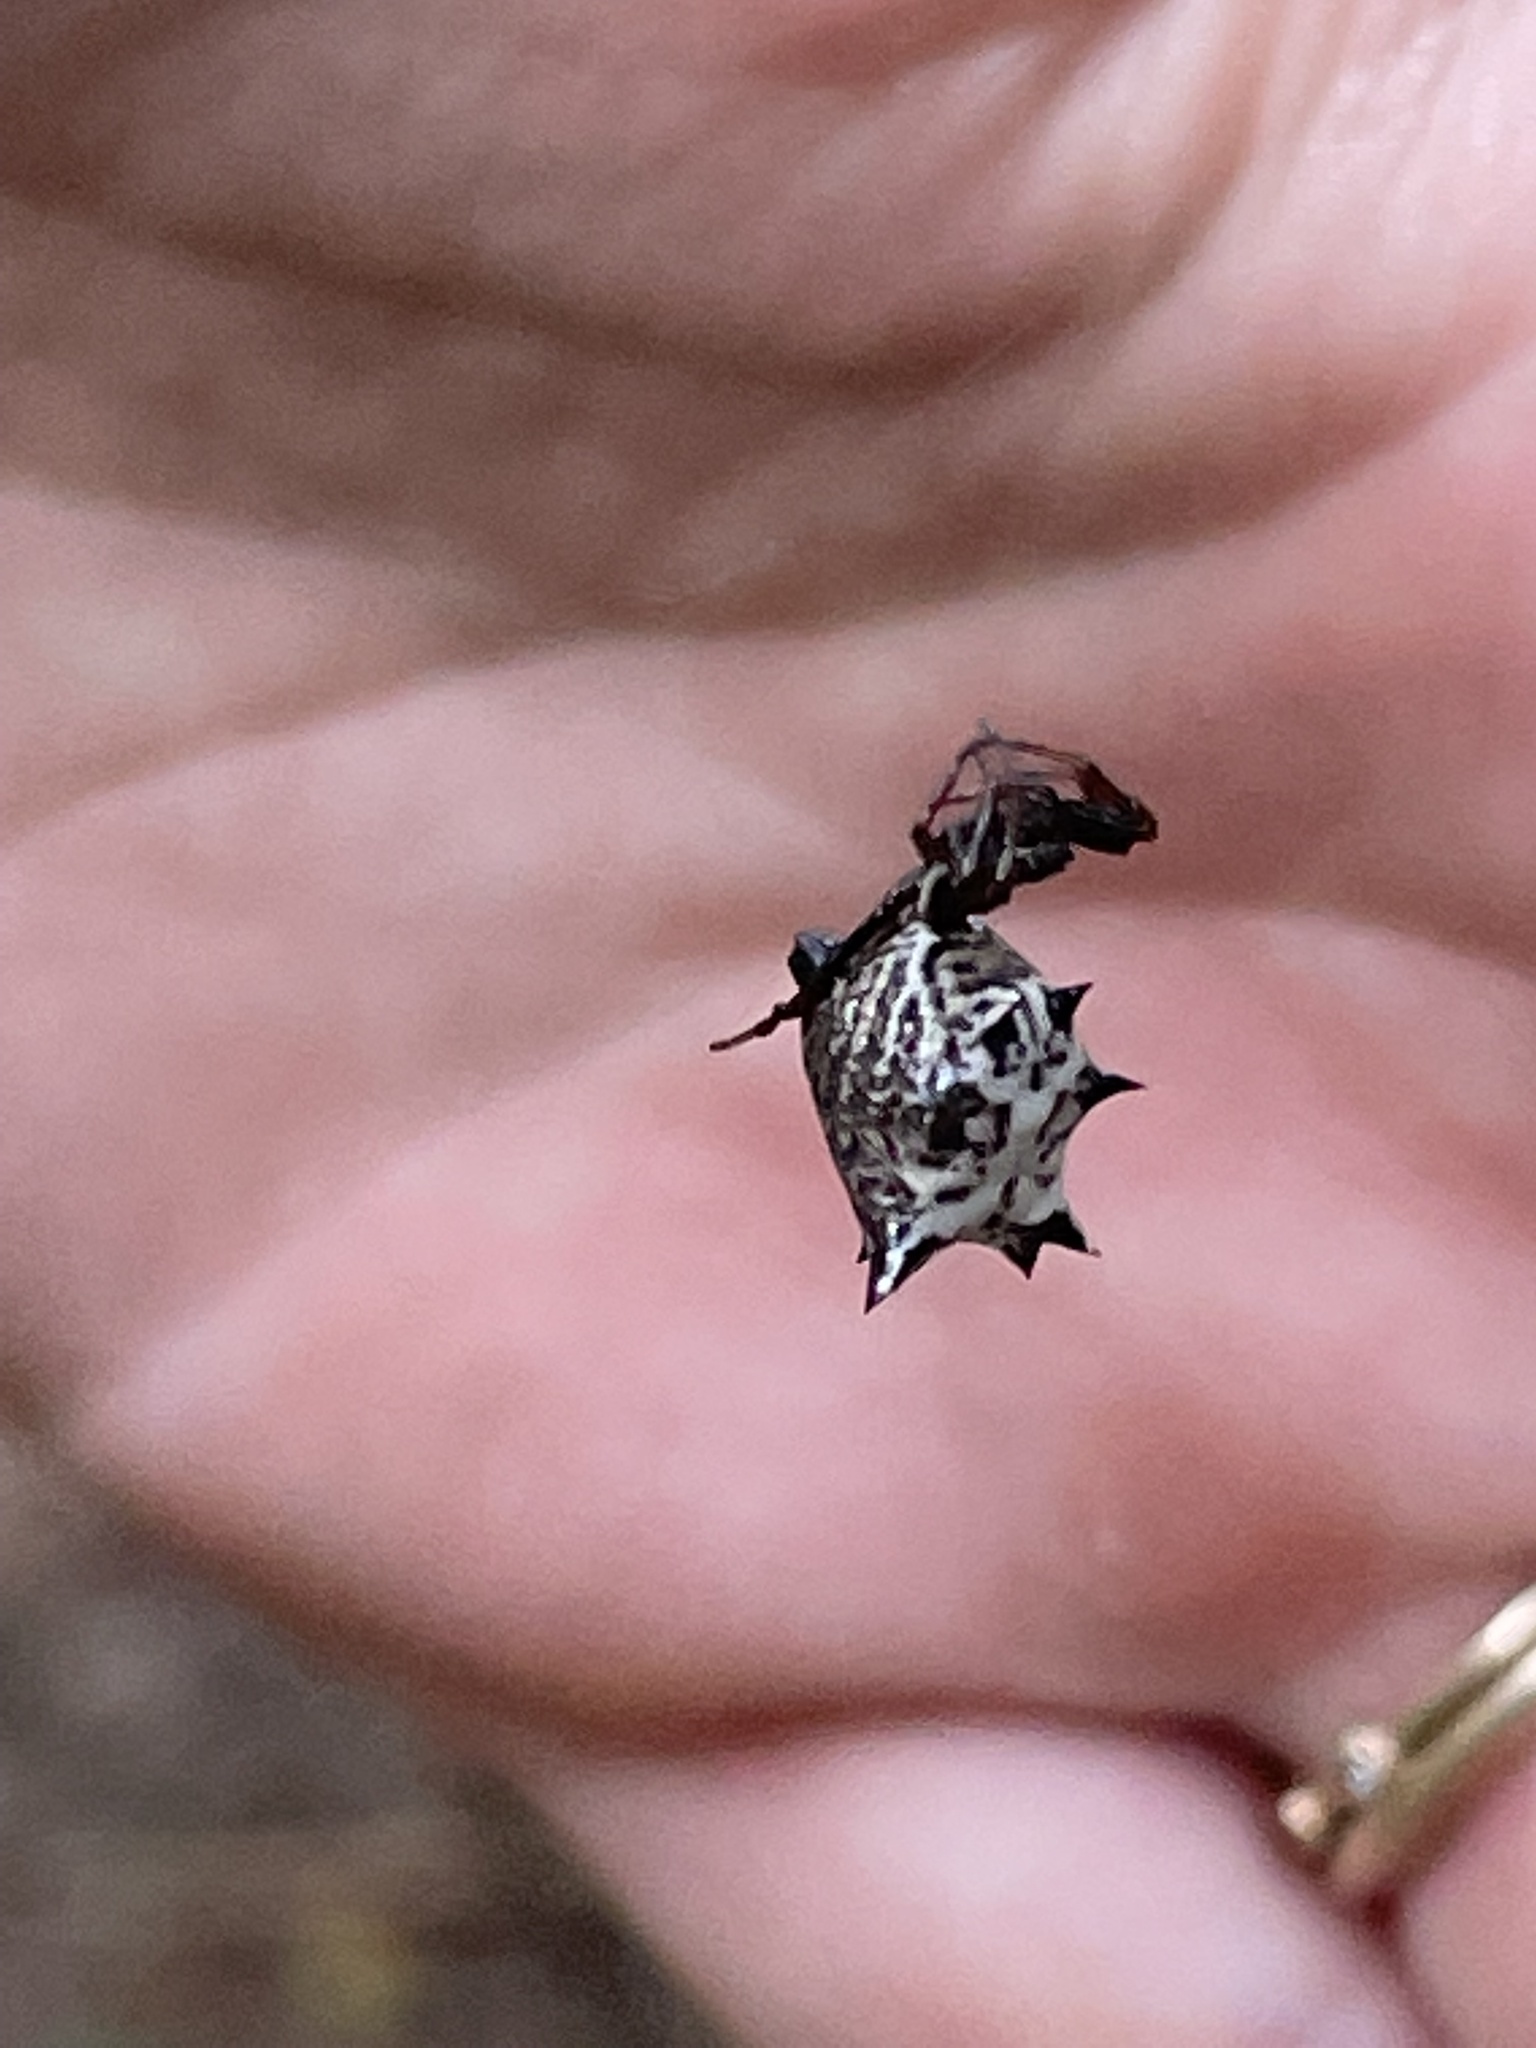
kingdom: Animalia
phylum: Arthropoda
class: Arachnida
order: Araneae
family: Araneidae
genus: Micrathena
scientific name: Micrathena gracilis
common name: Orb weavers
